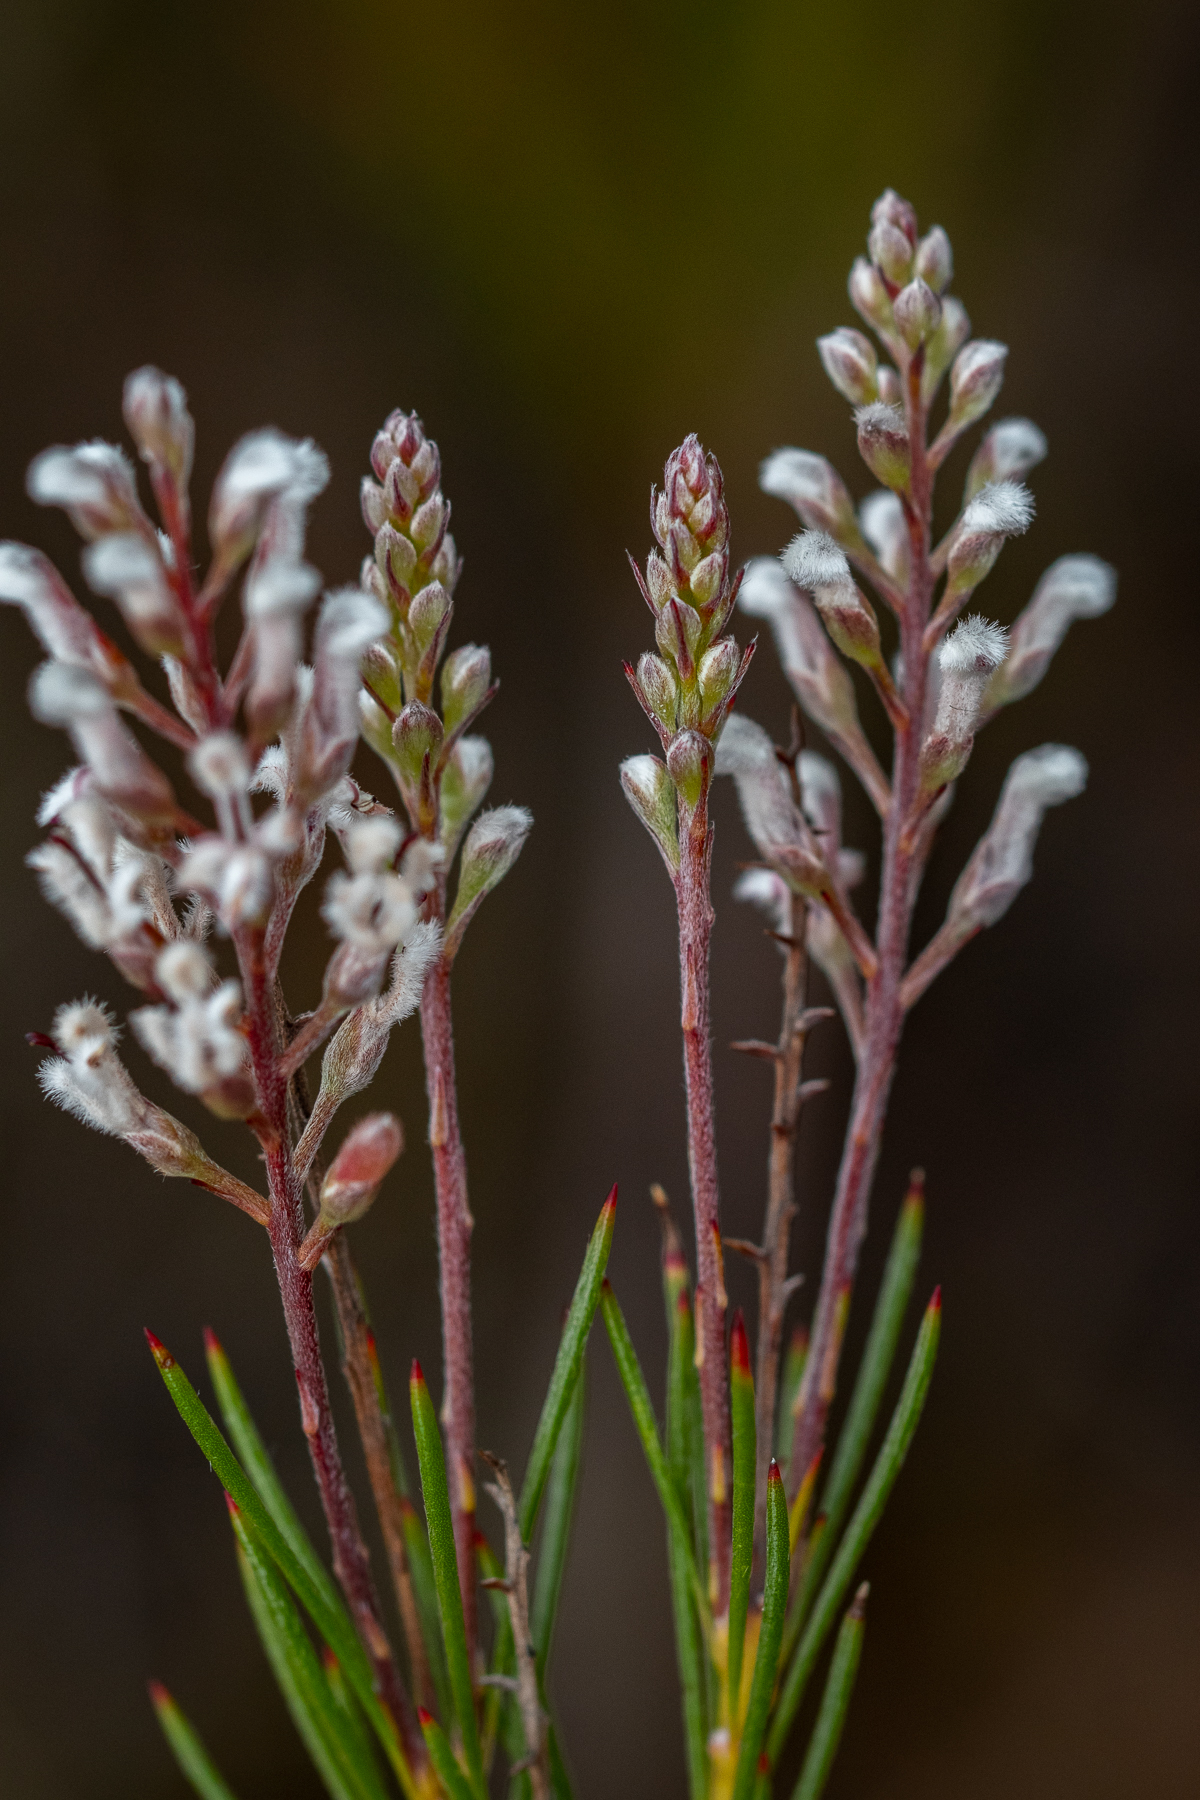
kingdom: Plantae
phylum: Tracheophyta
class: Magnoliopsida
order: Proteales
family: Proteaceae
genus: Spatalla
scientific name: Spatalla racemosa
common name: Lax-stalked spoon
